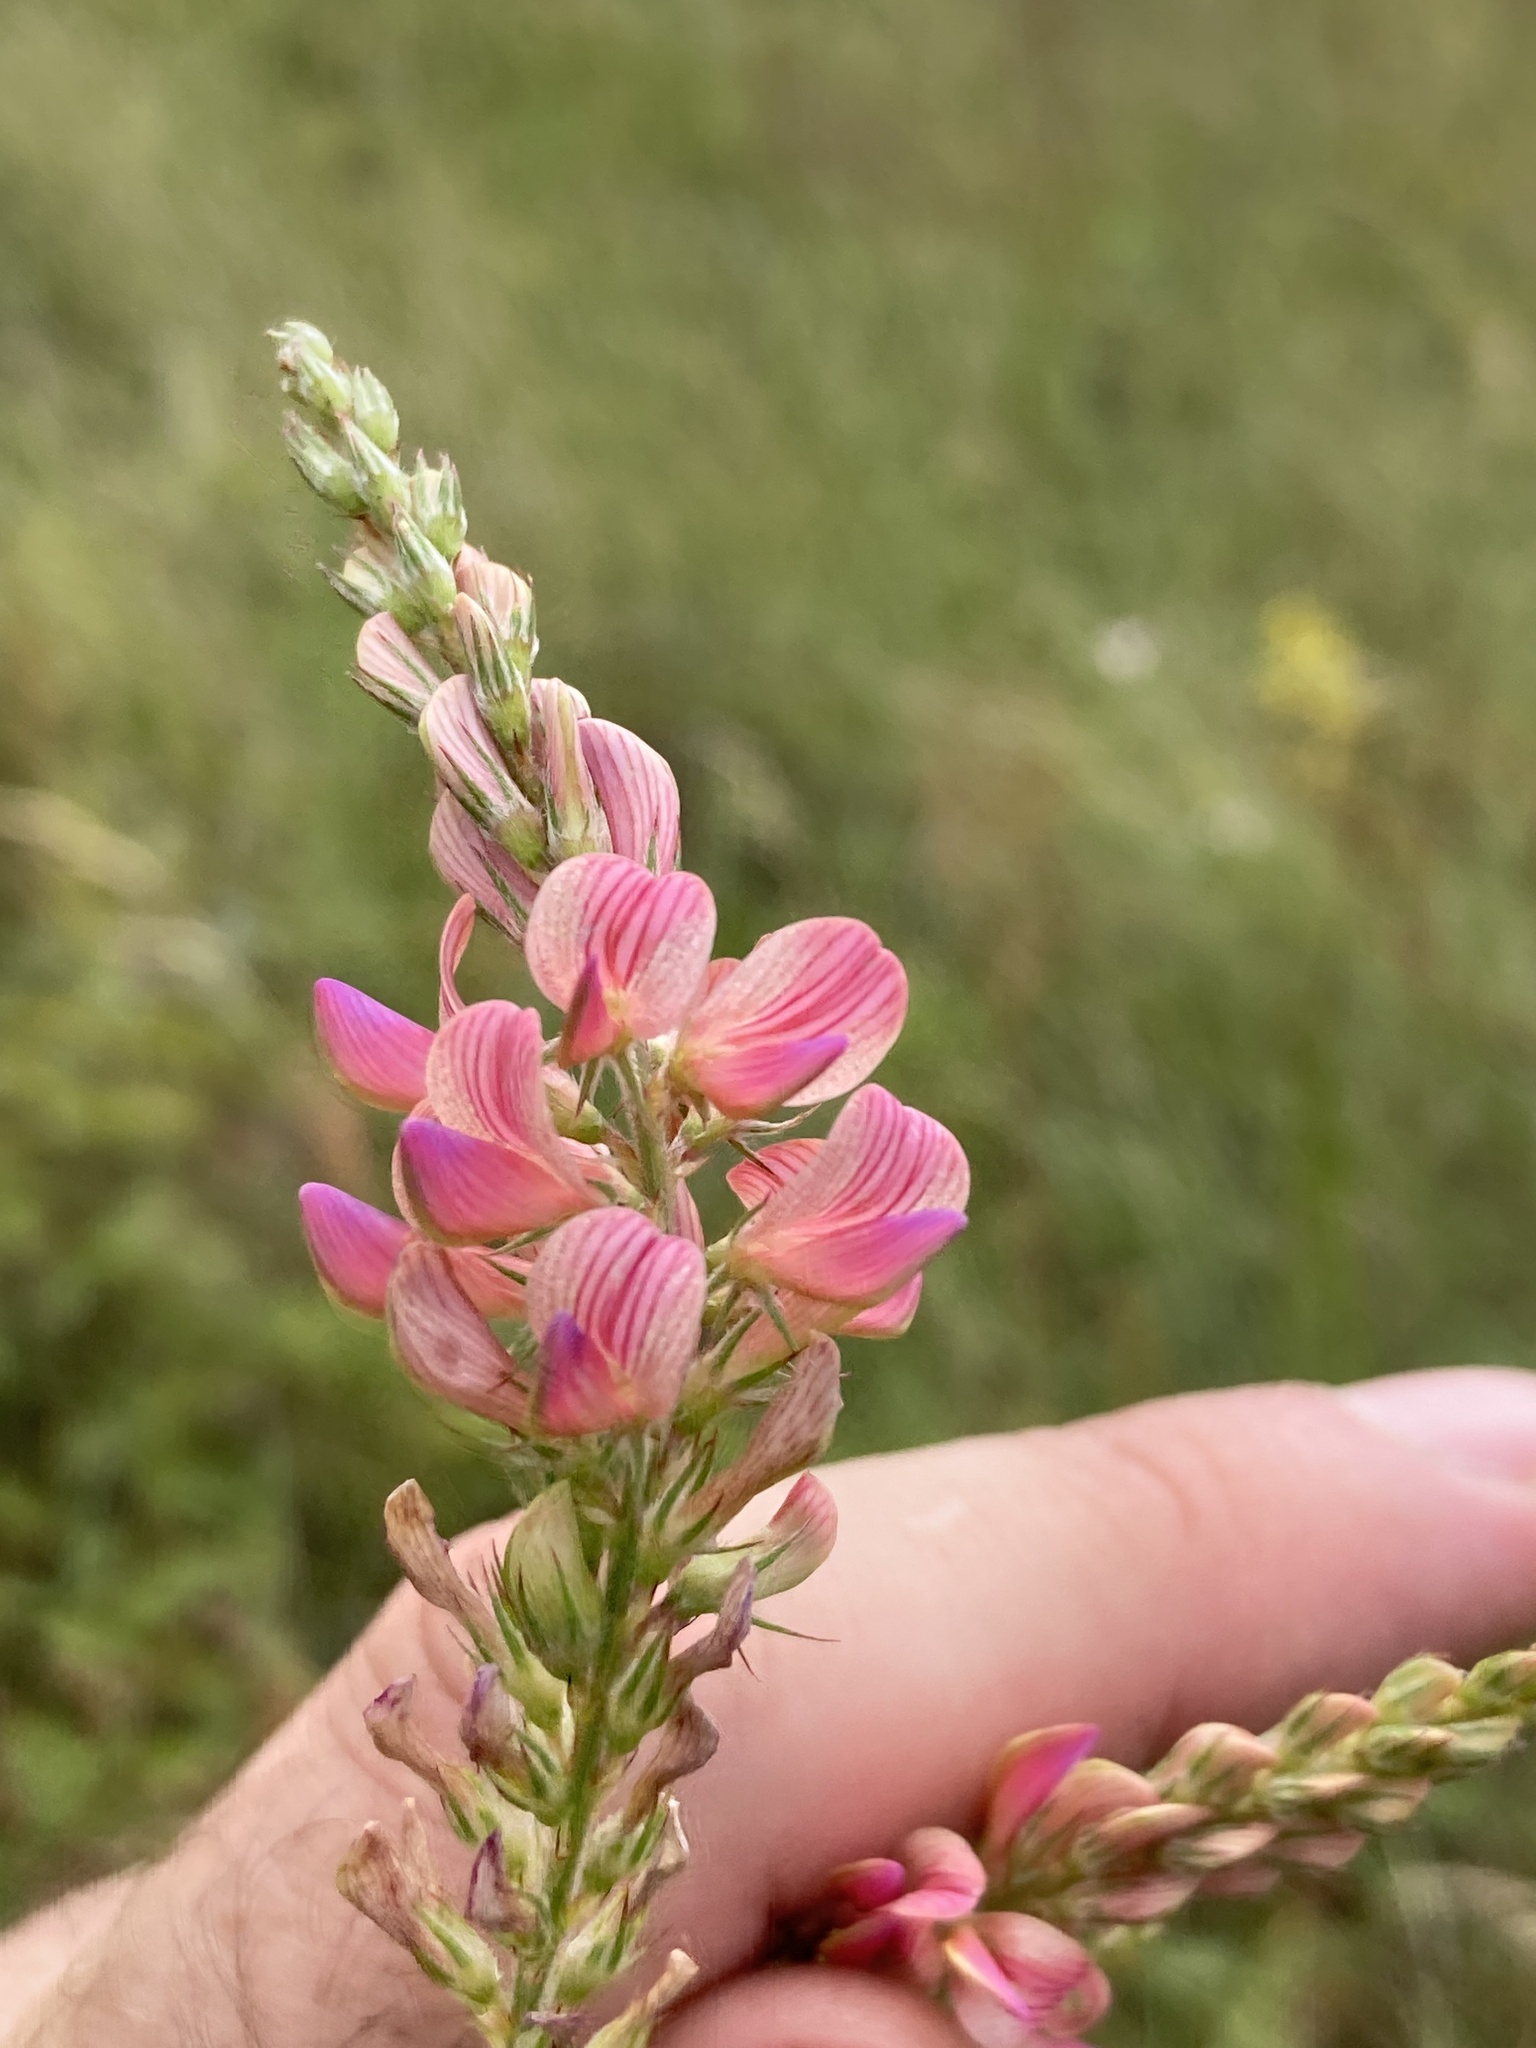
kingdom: Plantae
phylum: Tracheophyta
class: Magnoliopsida
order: Fabales
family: Fabaceae
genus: Onobrychis
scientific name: Onobrychis viciifolia
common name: Sainfoin
